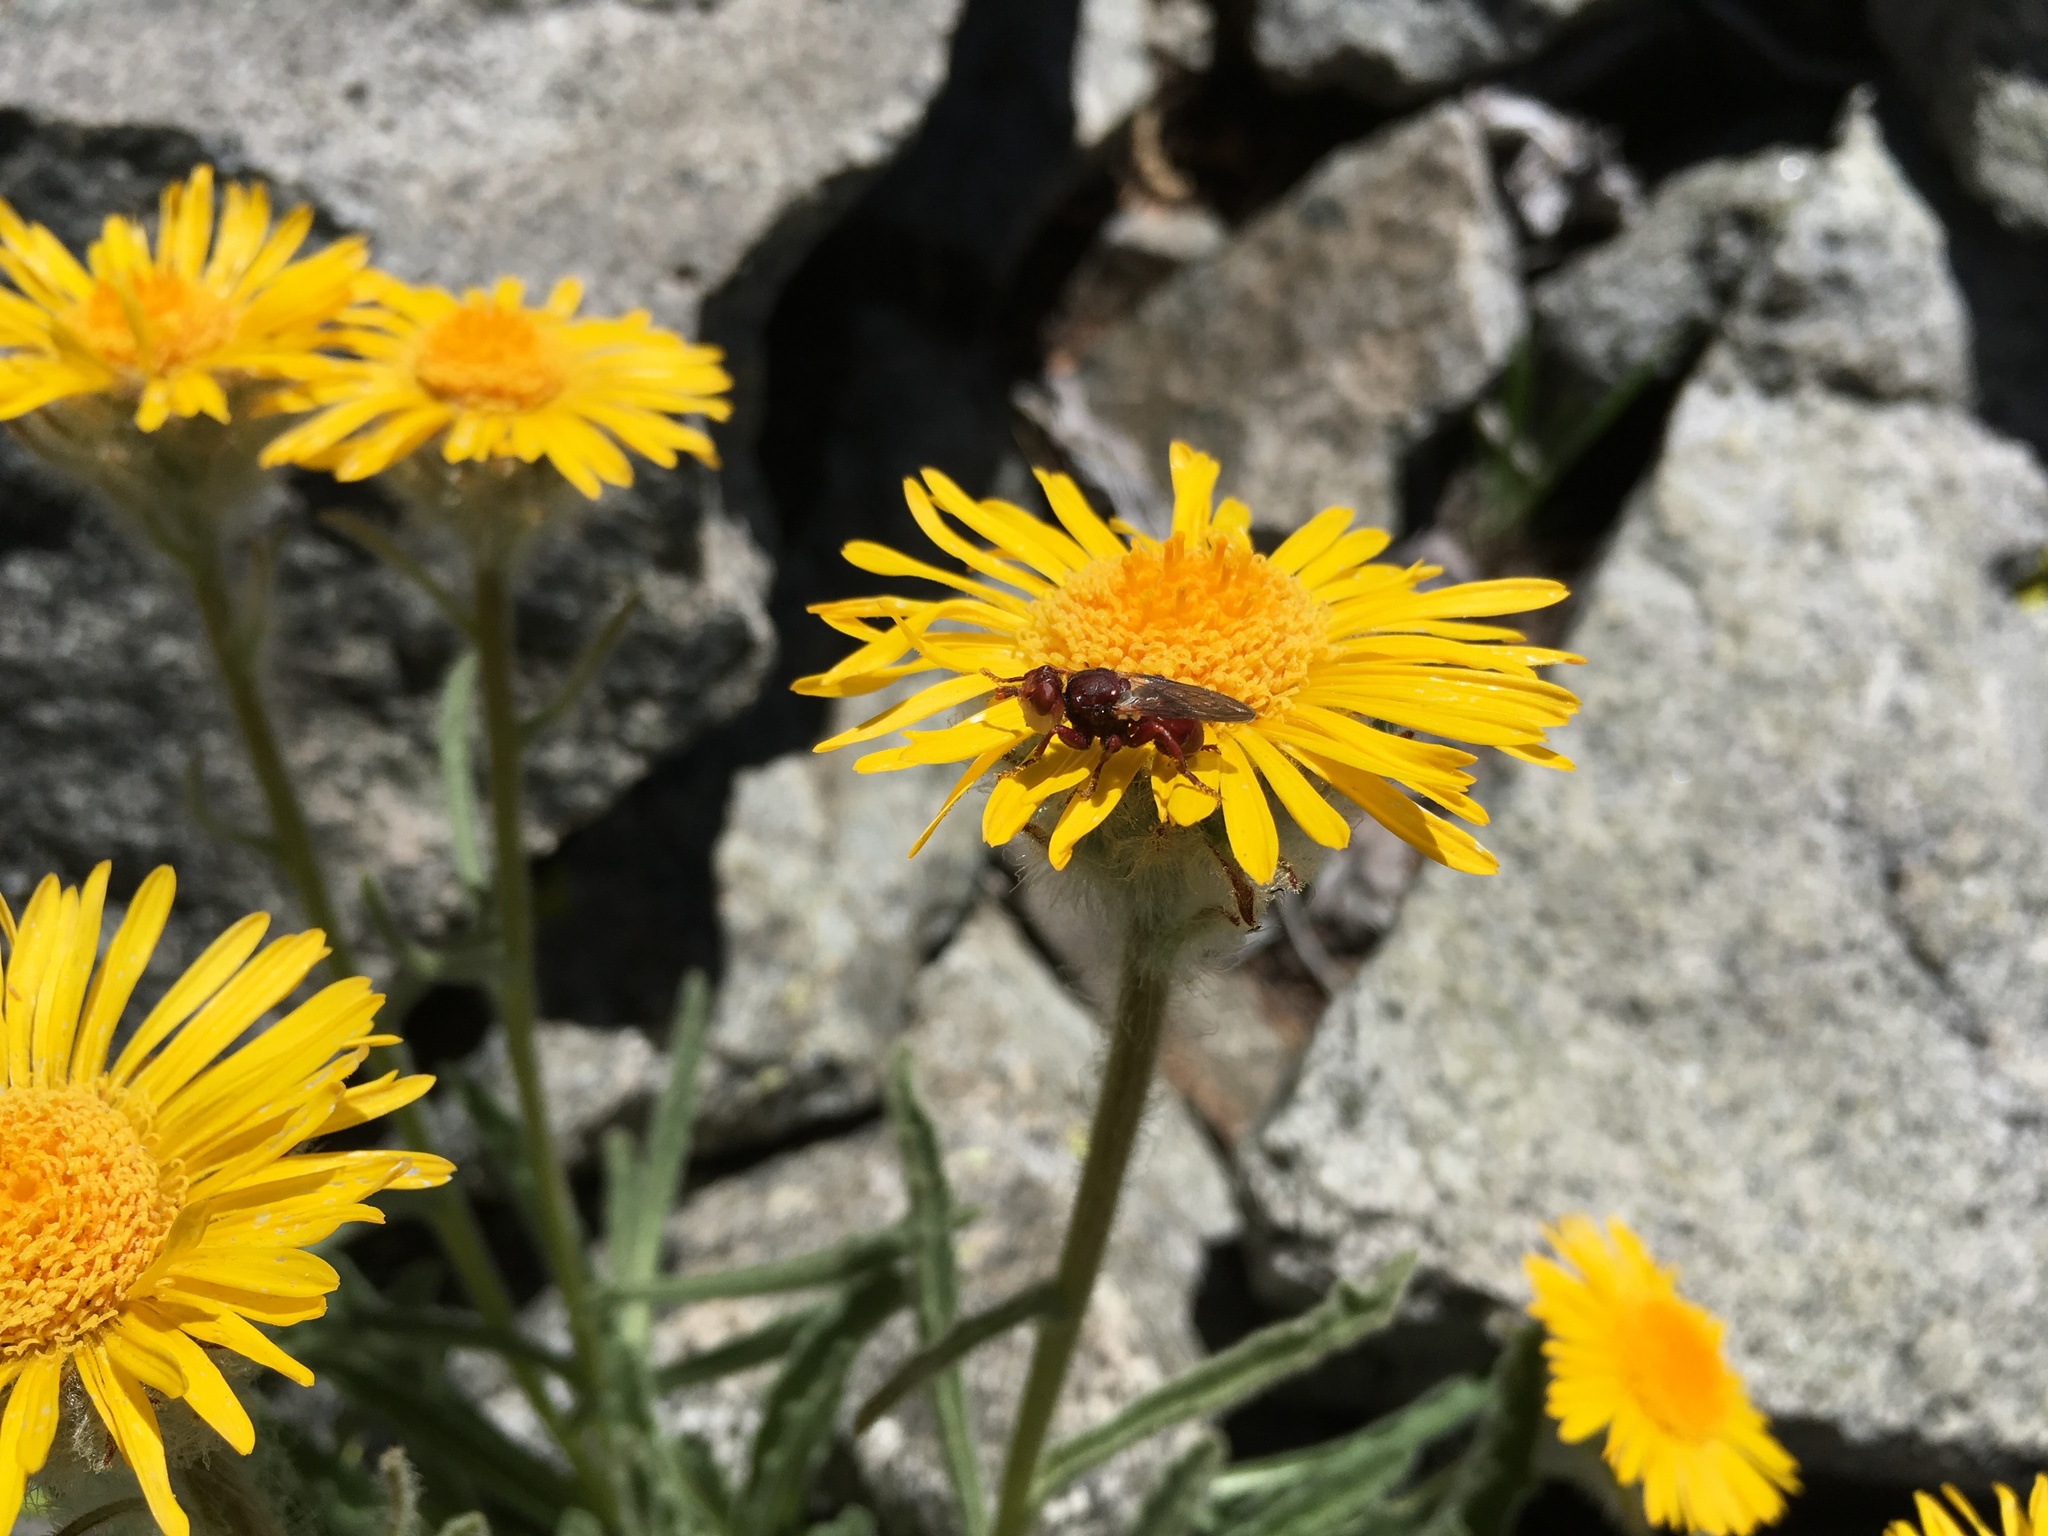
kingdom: Animalia
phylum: Arthropoda
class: Insecta
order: Diptera
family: Conopidae
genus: Myopa
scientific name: Myopa
